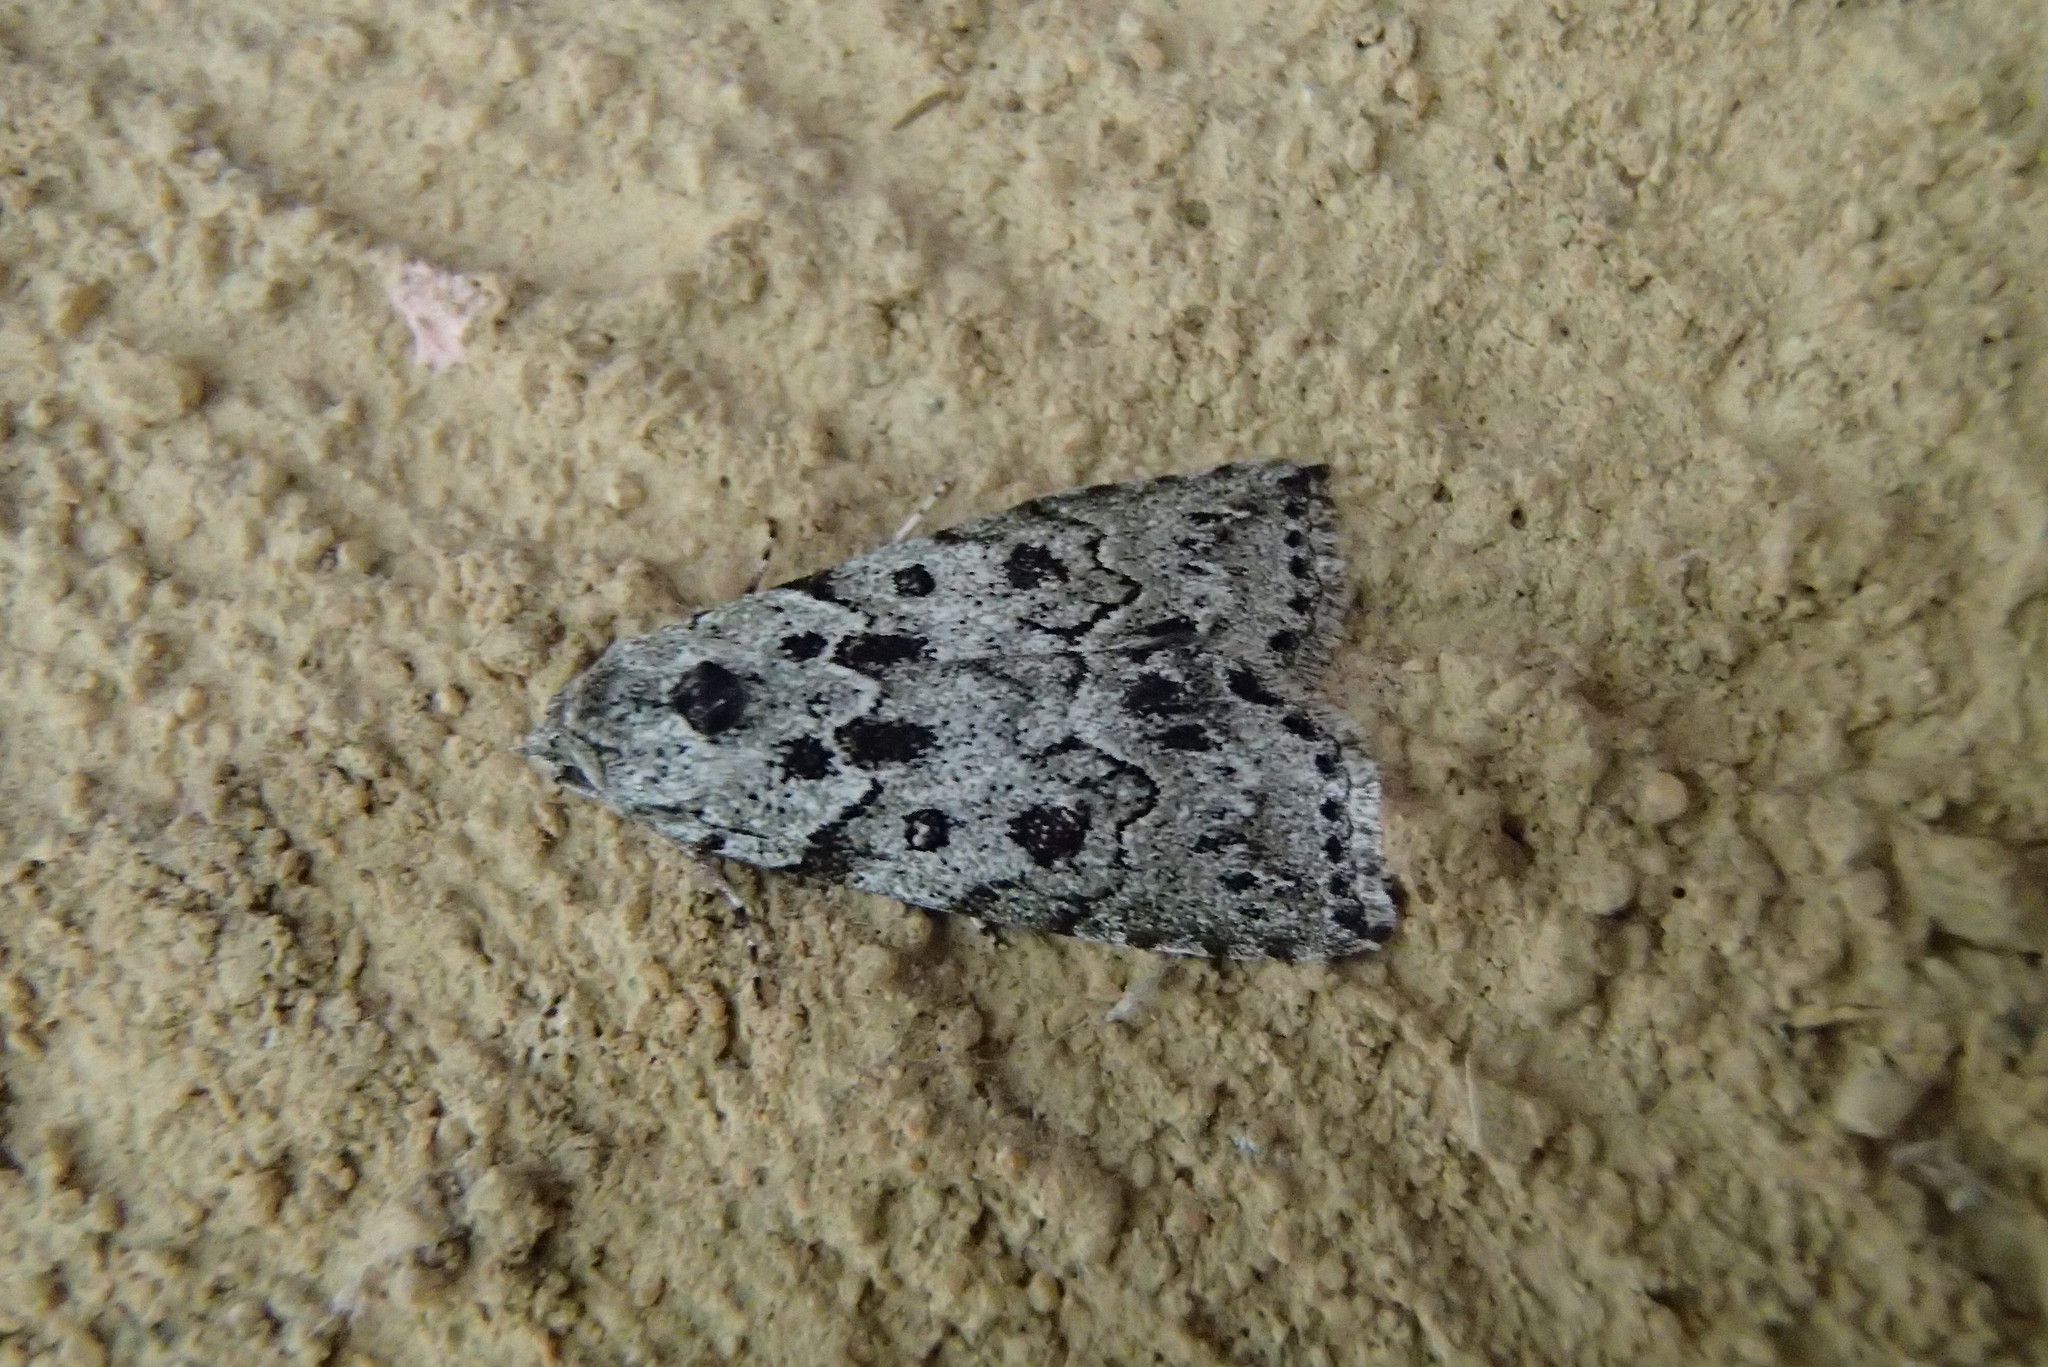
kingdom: Animalia
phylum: Arthropoda
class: Insecta
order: Lepidoptera
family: Nolidae
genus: Calathusa
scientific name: Calathusa basicunea
